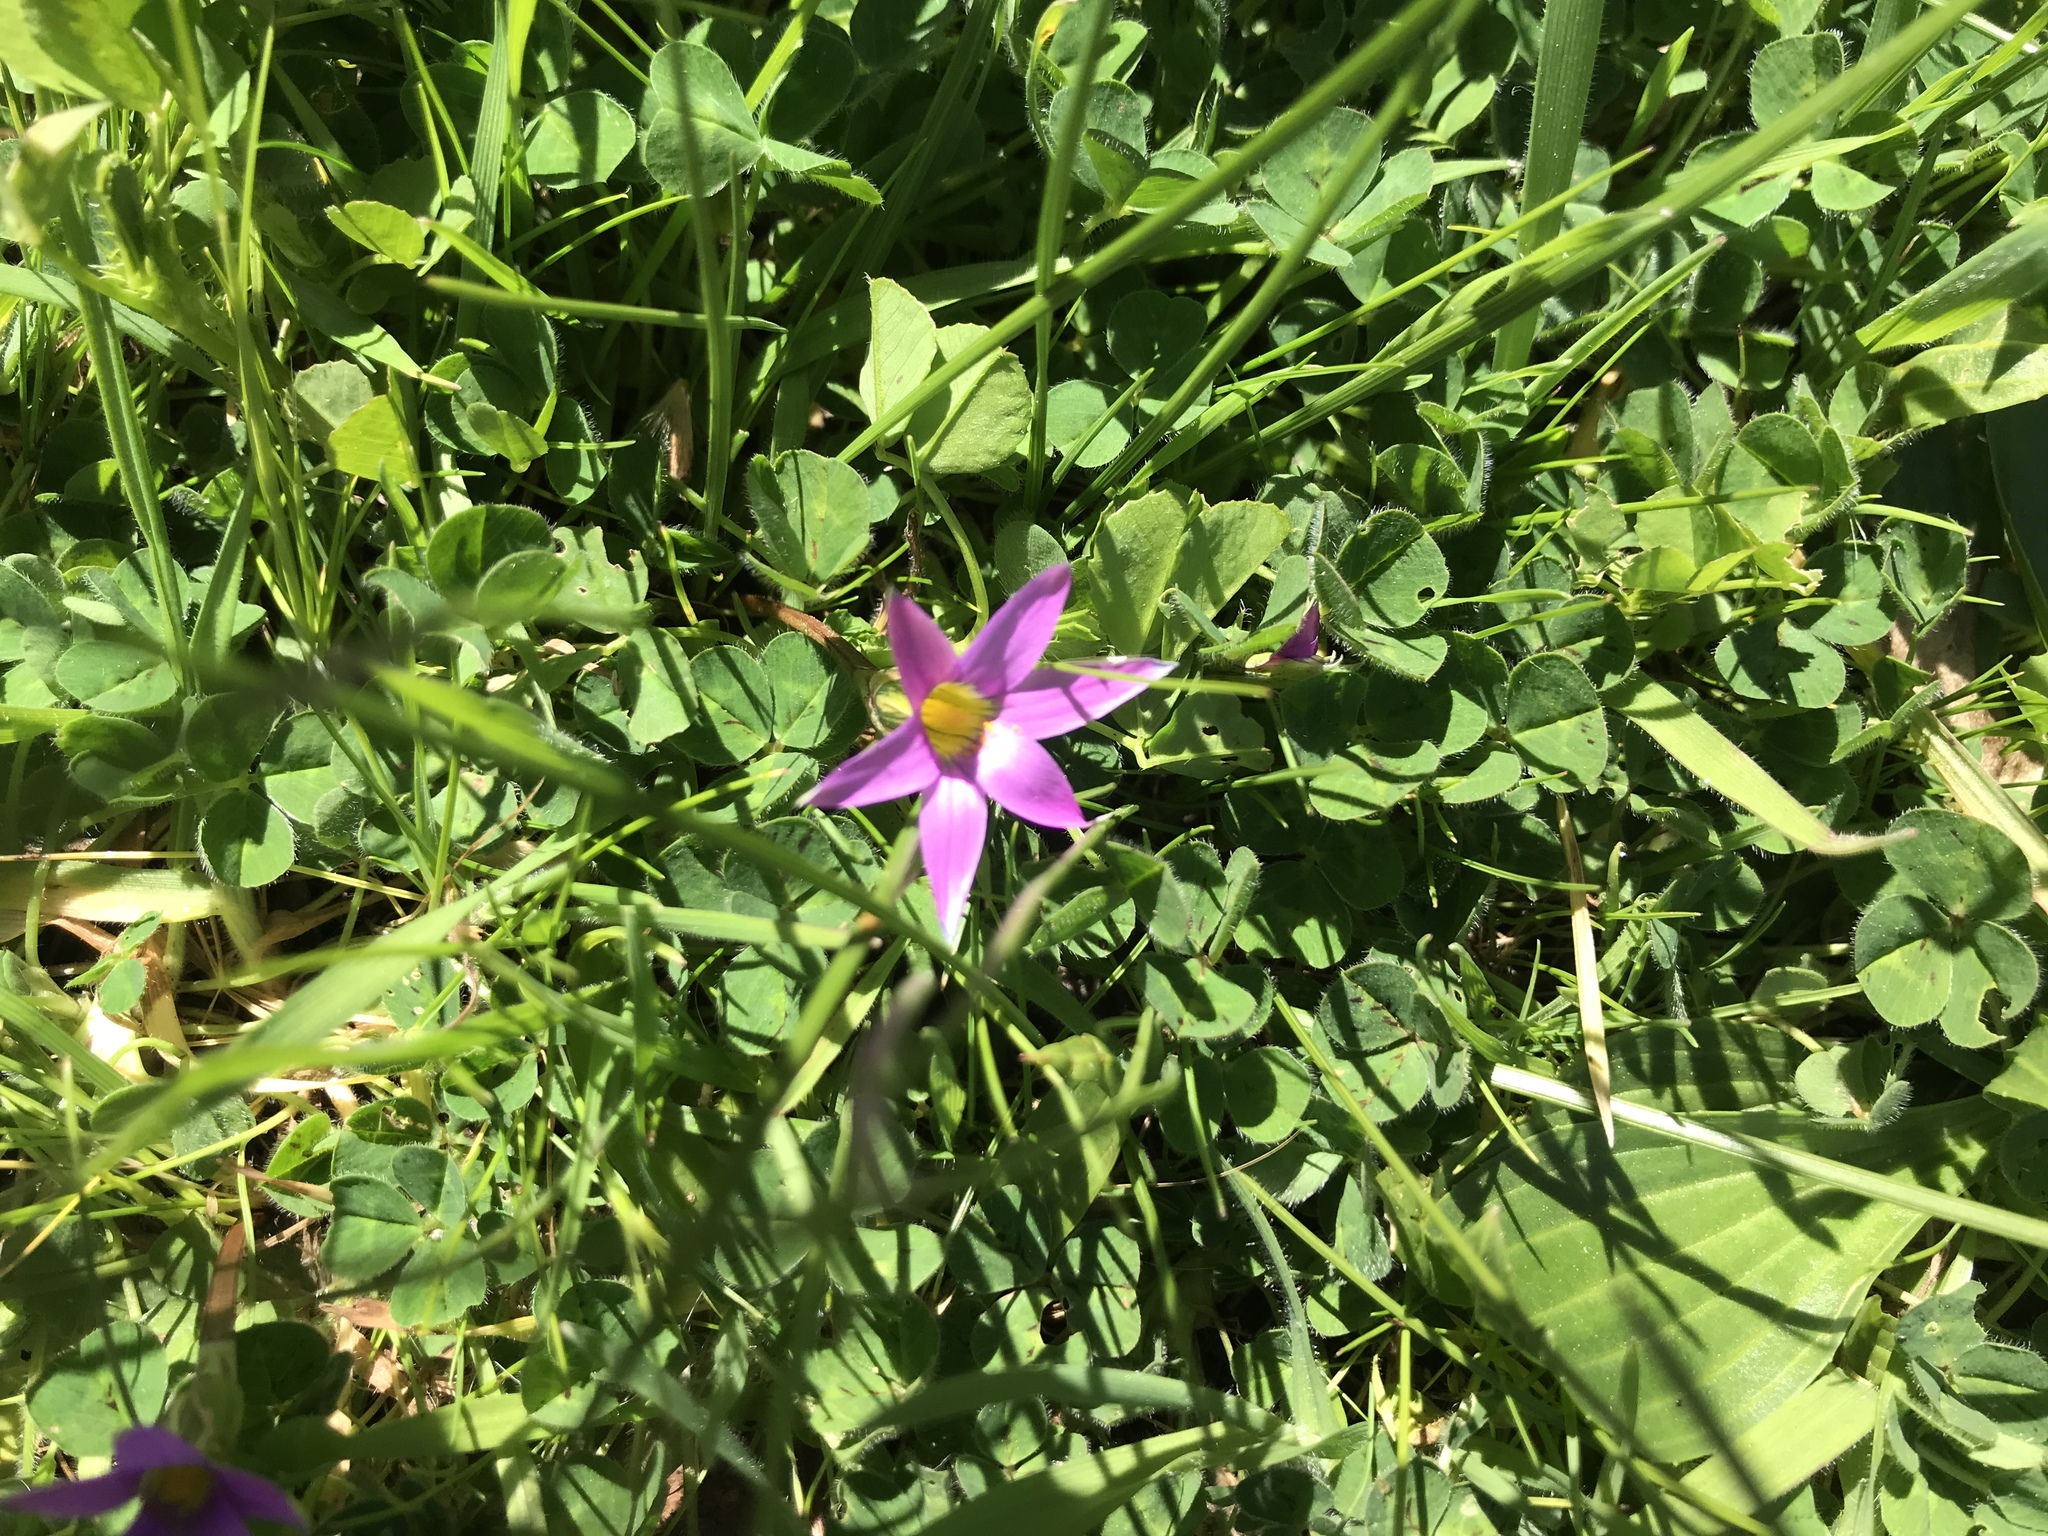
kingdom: Plantae
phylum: Tracheophyta
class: Liliopsida
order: Asparagales
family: Iridaceae
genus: Romulea
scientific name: Romulea rosea
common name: Oniongrass
